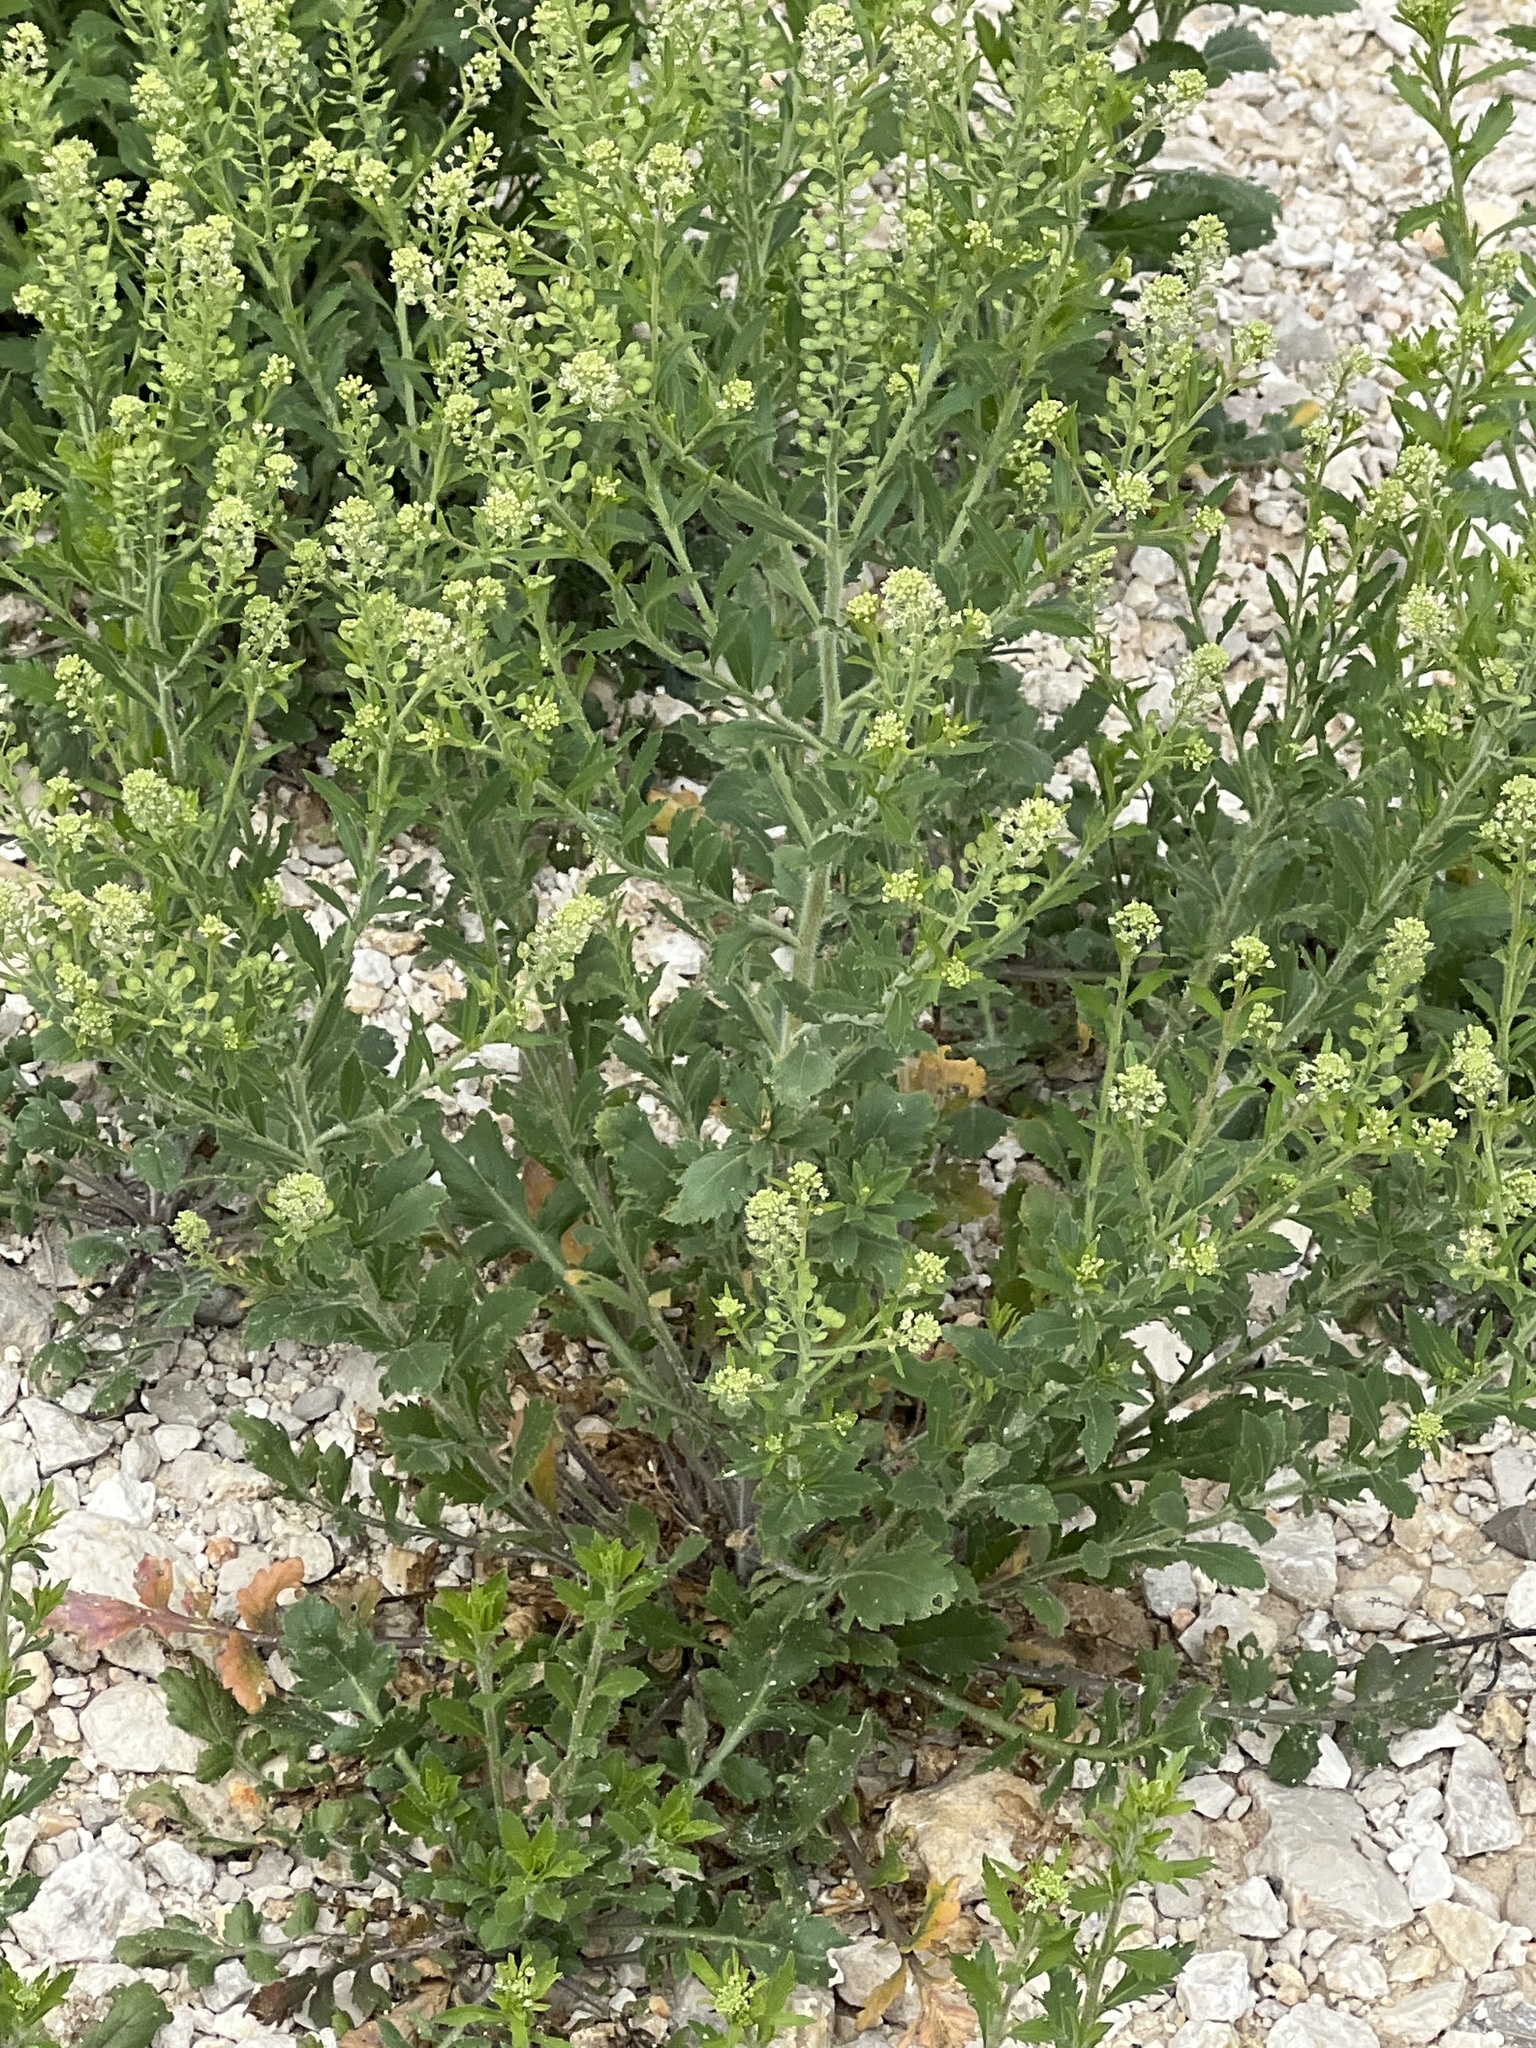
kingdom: Plantae
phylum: Tracheophyta
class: Magnoliopsida
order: Brassicales
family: Brassicaceae
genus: Lepidium
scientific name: Lepidium austrinum
